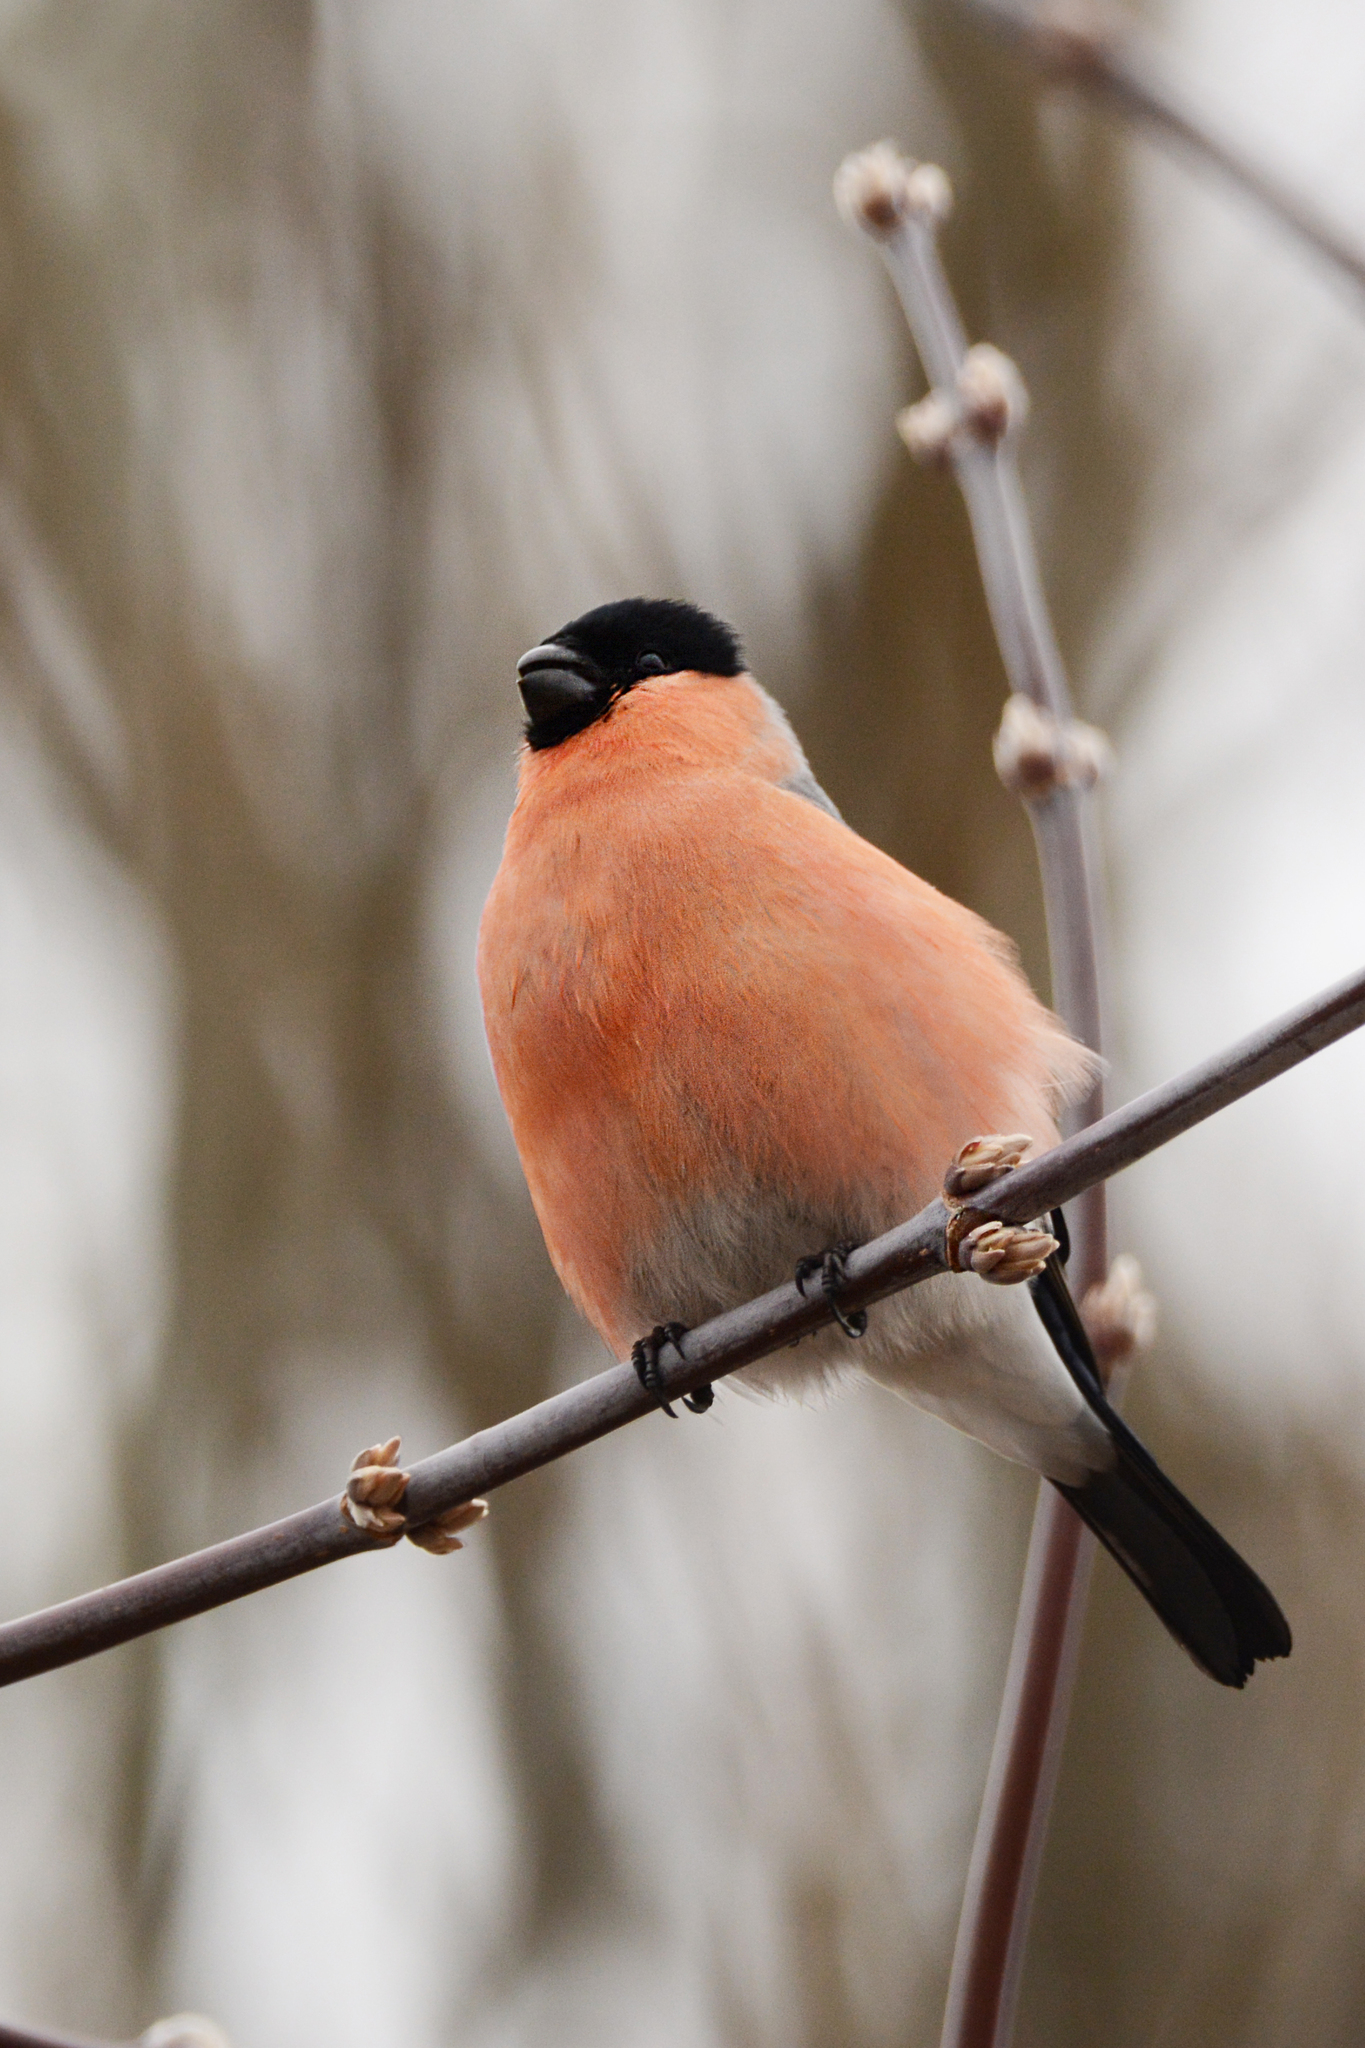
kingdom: Animalia
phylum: Chordata
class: Aves
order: Passeriformes
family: Fringillidae
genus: Pyrrhula
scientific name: Pyrrhula pyrrhula
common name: Eurasian bullfinch
